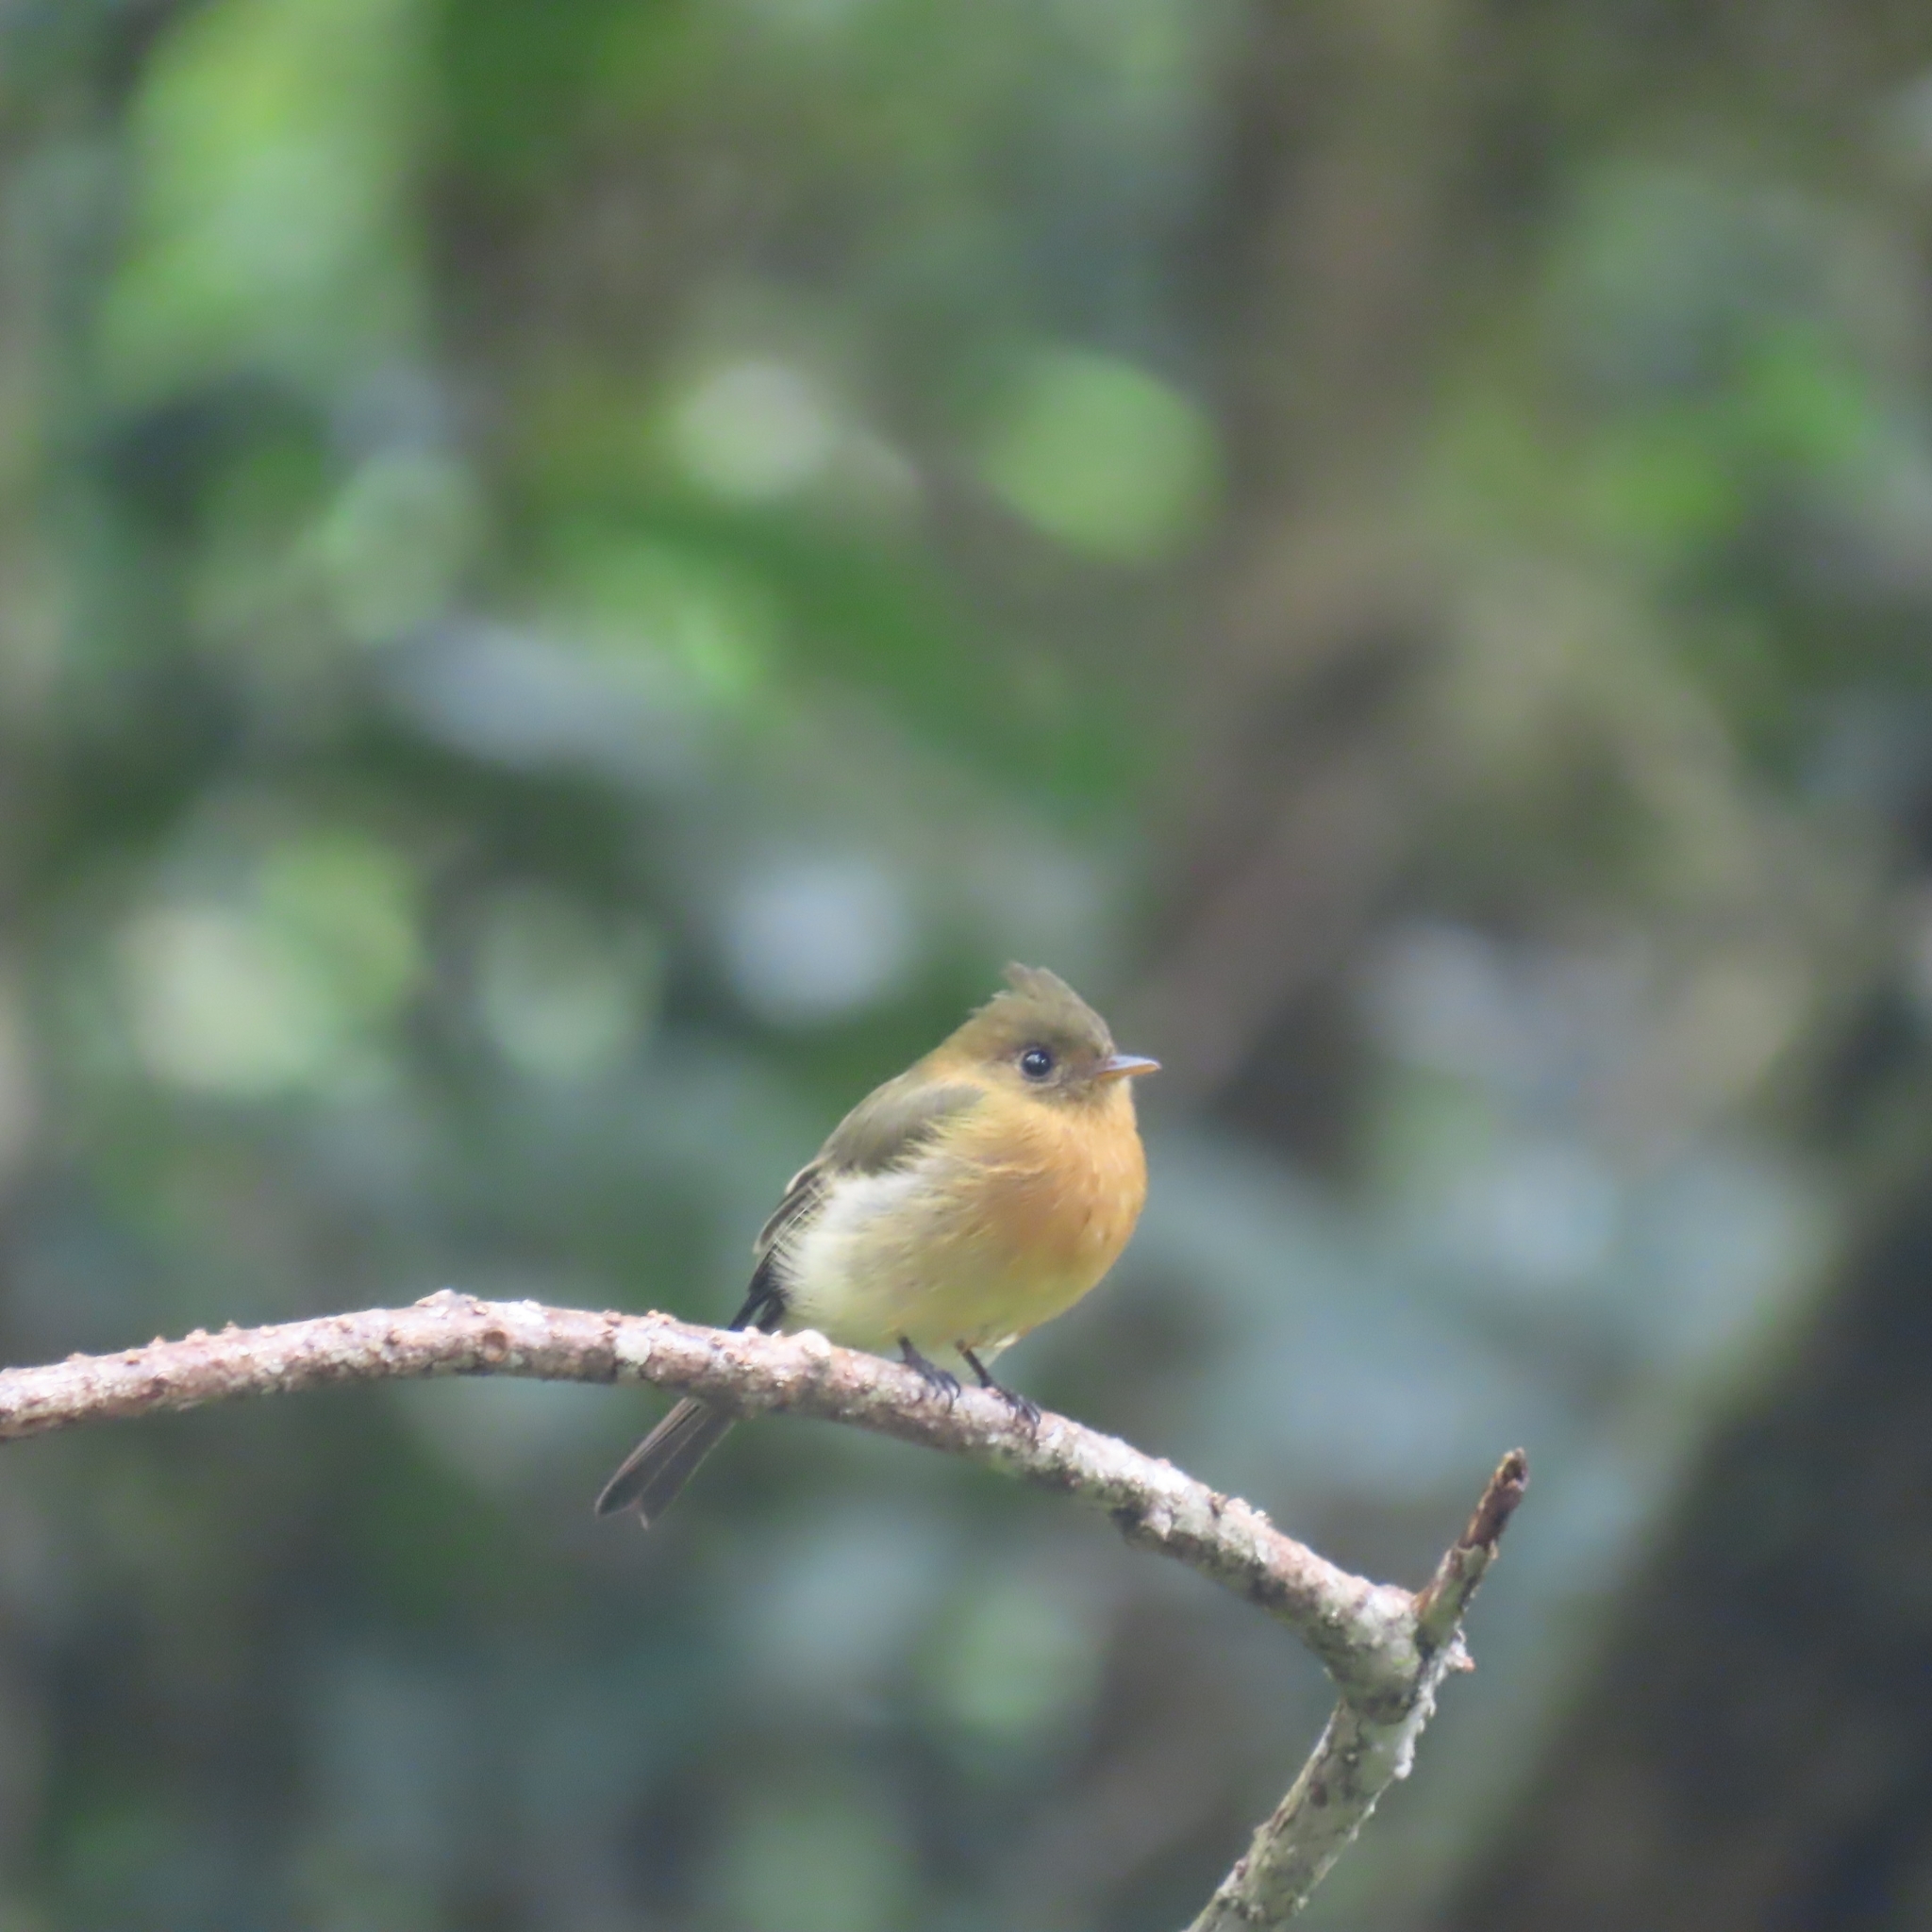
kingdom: Animalia
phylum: Chordata
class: Aves
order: Passeriformes
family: Tyrannidae
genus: Mitrephanes
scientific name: Mitrephanes phaeocercus
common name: Northern tufted flycatcher
